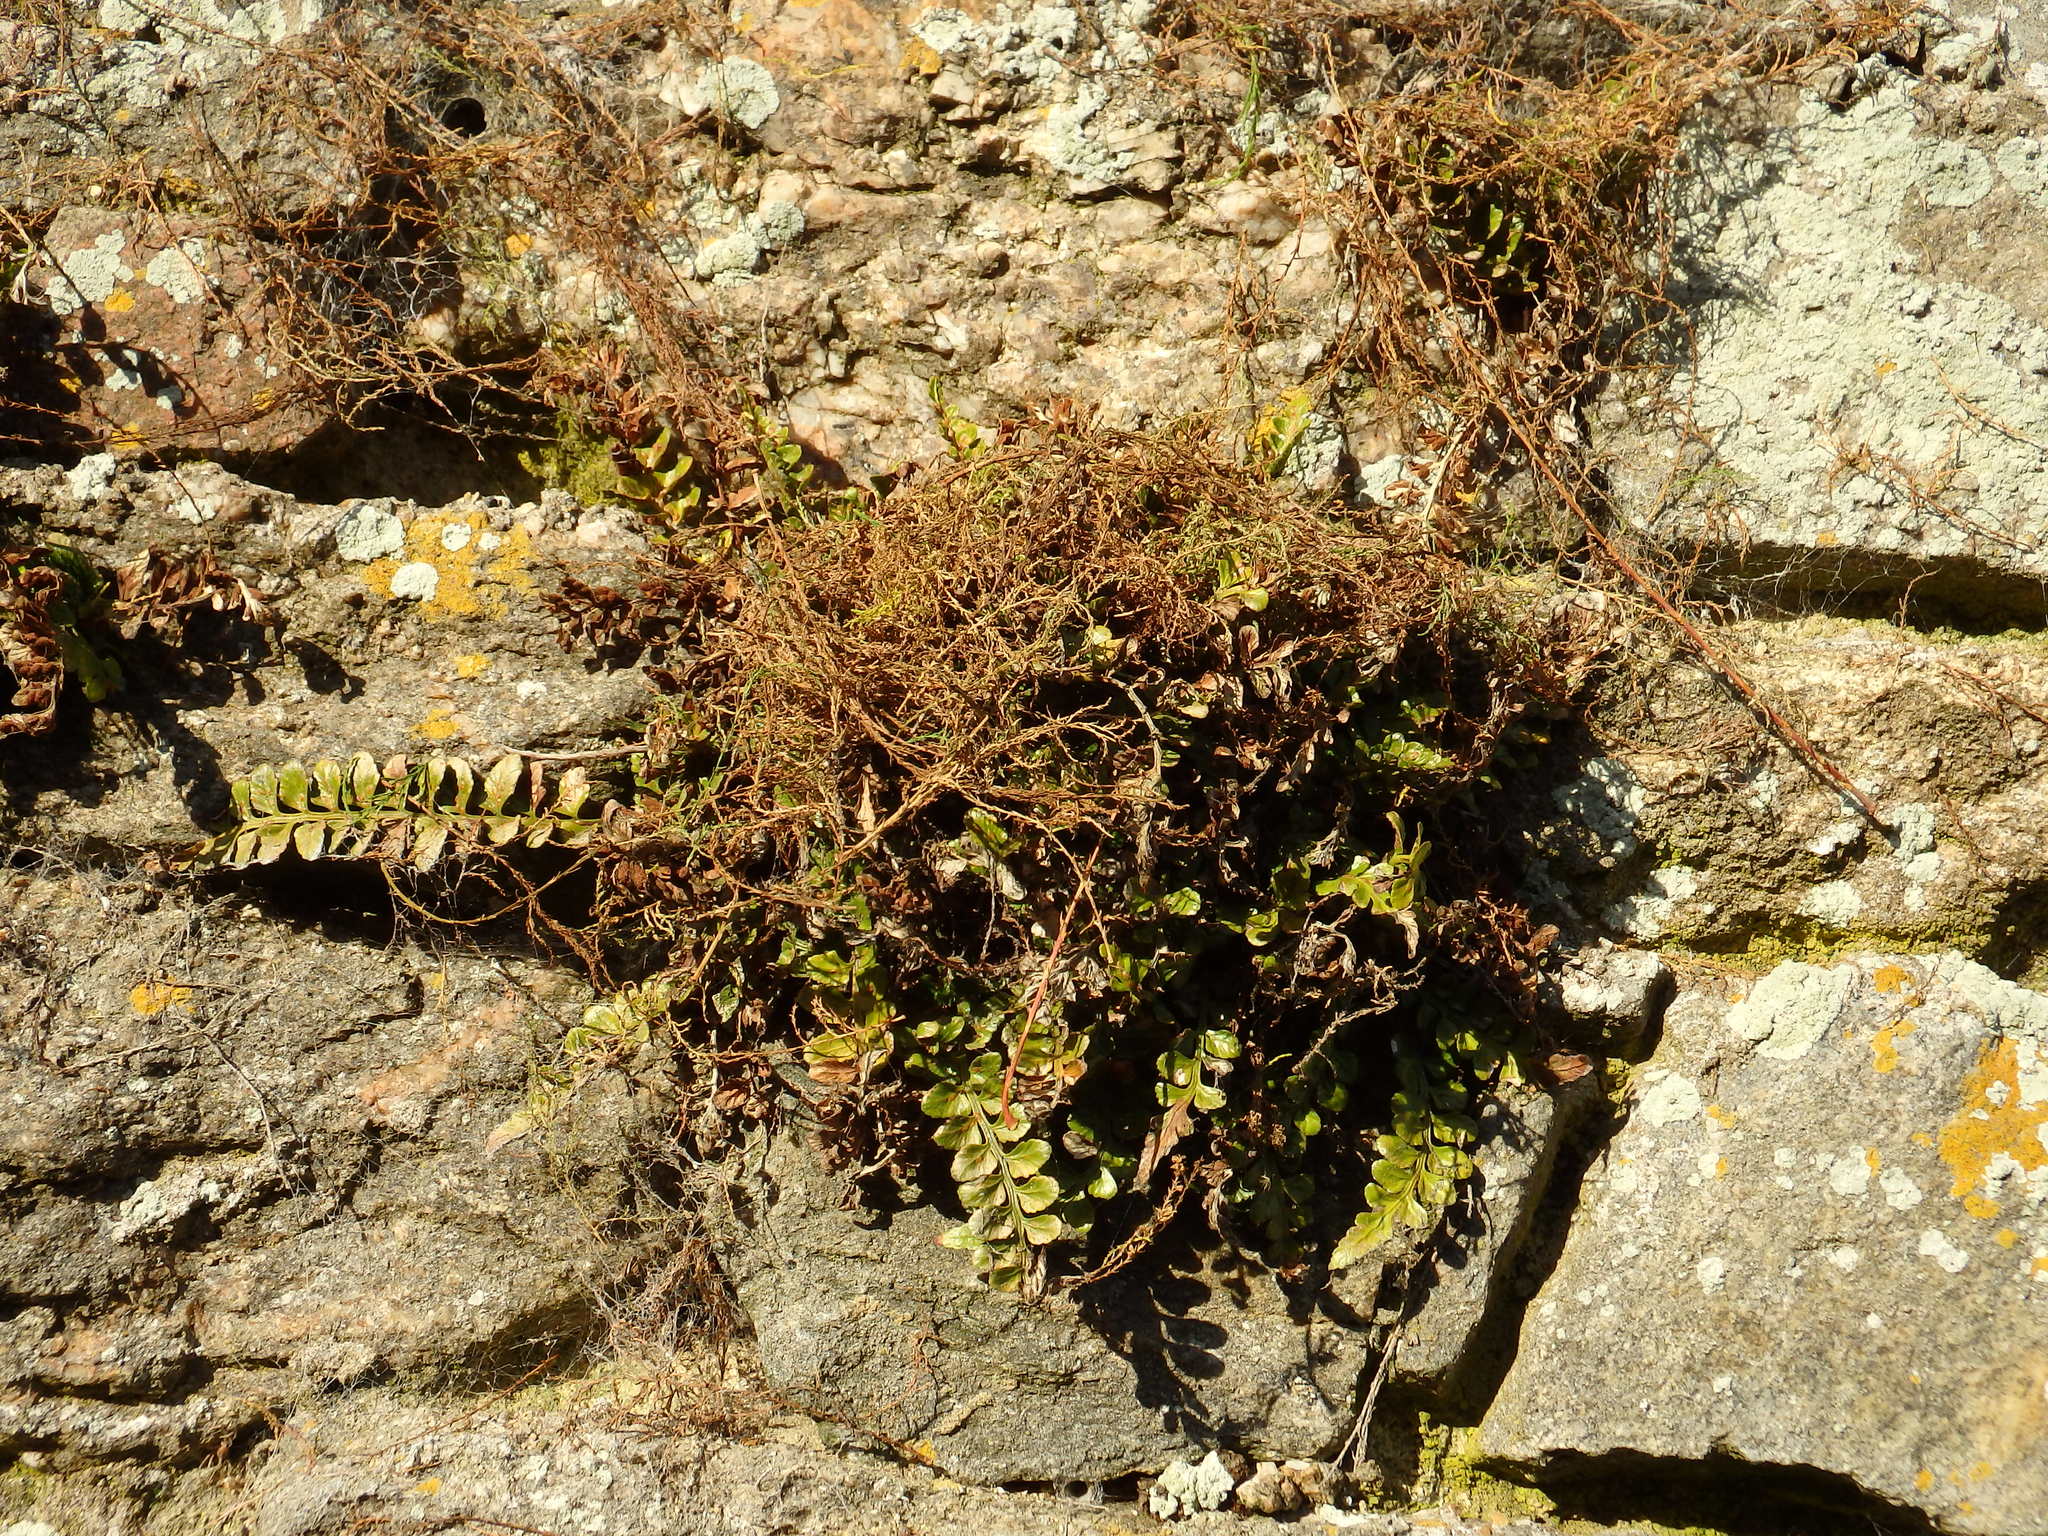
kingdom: Plantae
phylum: Tracheophyta
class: Polypodiopsida
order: Polypodiales
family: Aspleniaceae
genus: Asplenium
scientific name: Asplenium marinum
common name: Sea spleenwort
